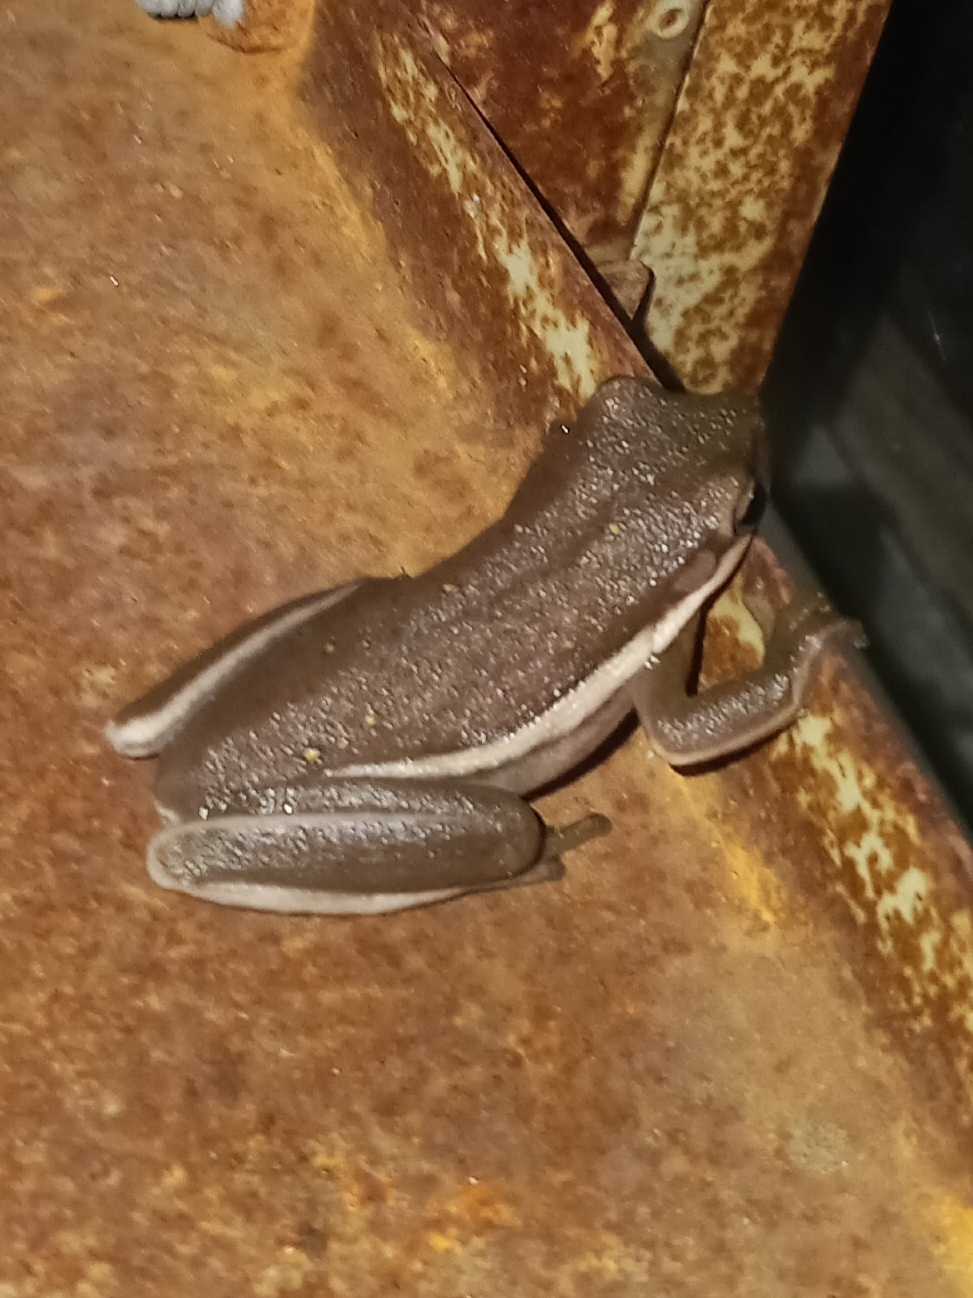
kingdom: Animalia
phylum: Chordata
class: Amphibia
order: Anura
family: Hylidae
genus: Dryophytes
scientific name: Dryophytes cinereus
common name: Green treefrog
